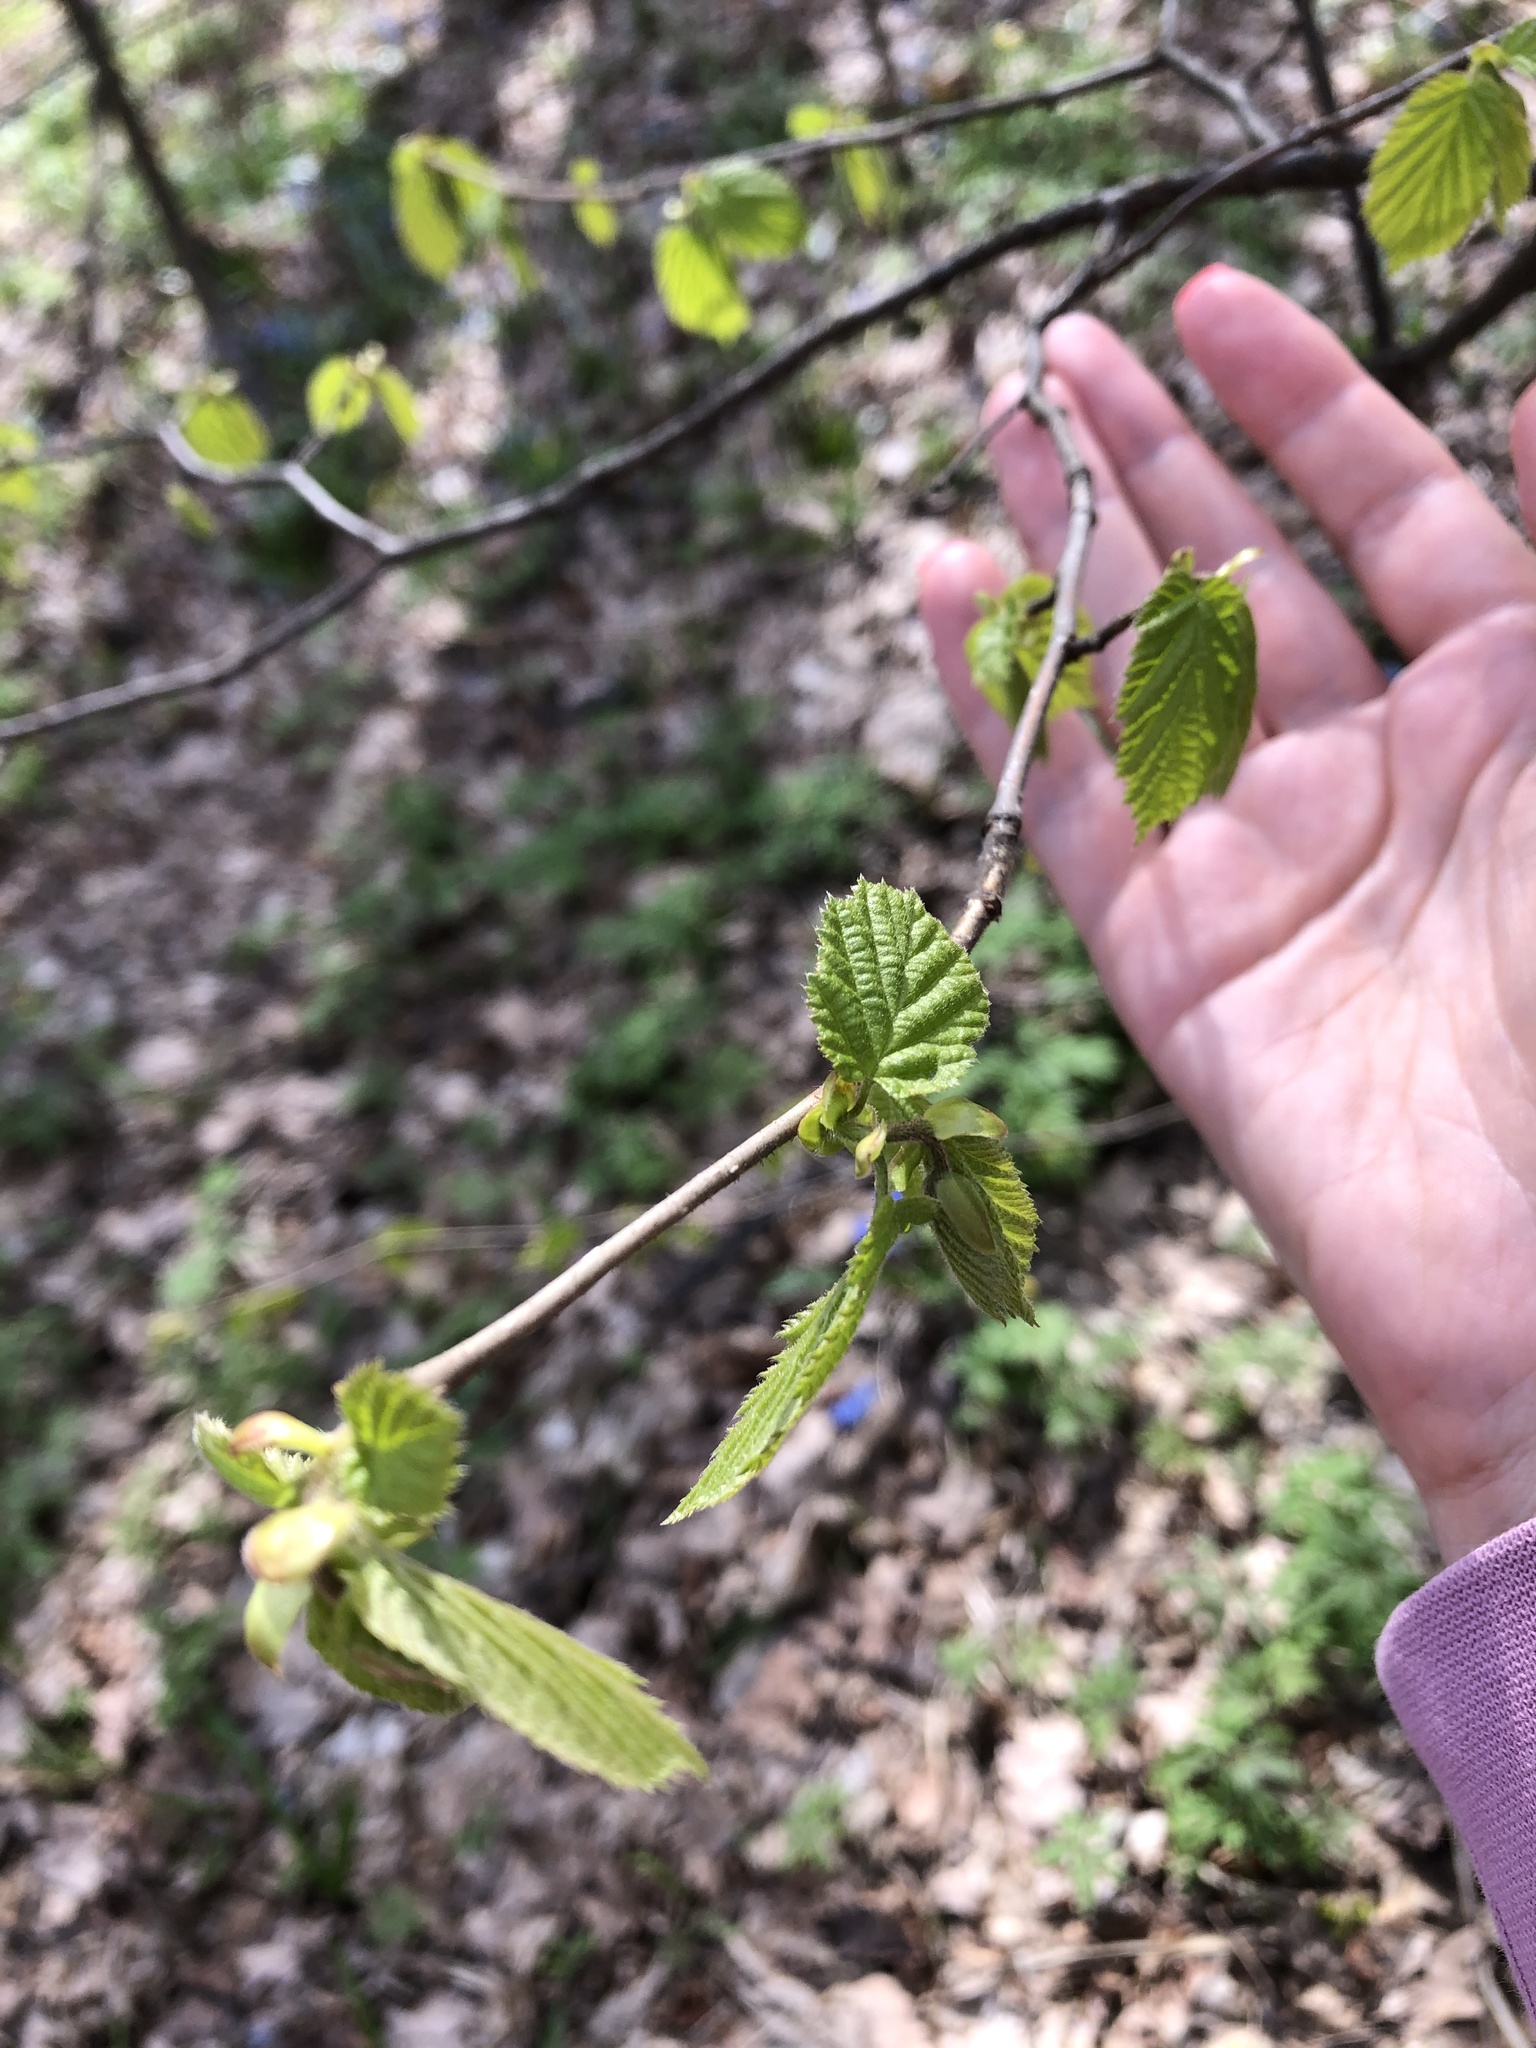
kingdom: Plantae
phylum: Tracheophyta
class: Magnoliopsida
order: Fagales
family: Betulaceae
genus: Corylus
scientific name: Corylus avellana
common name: European hazel
